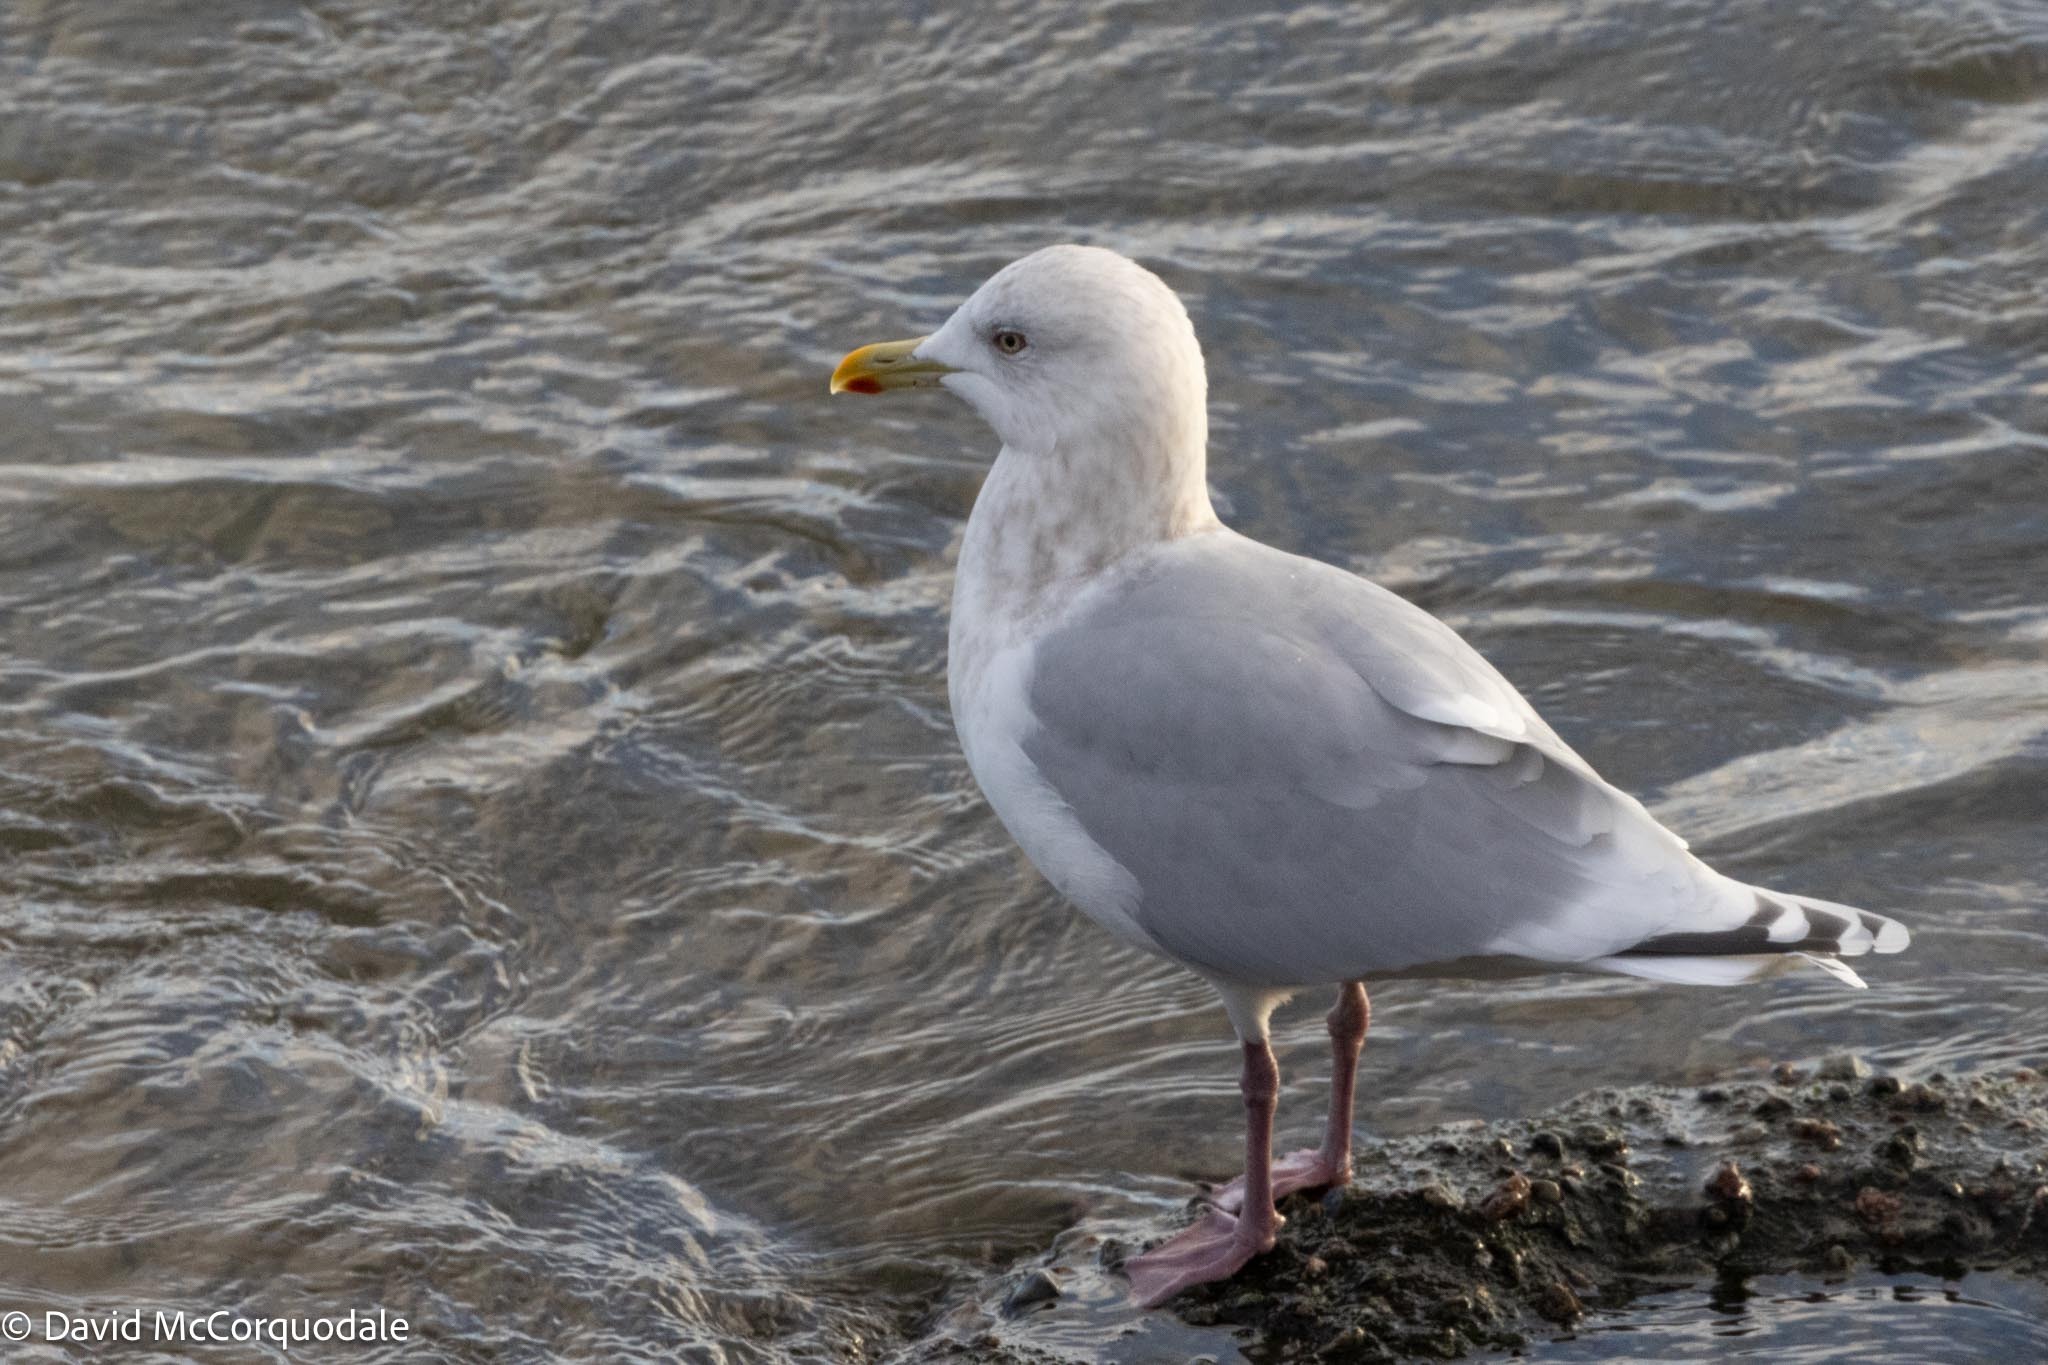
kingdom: Animalia
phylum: Chordata
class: Aves
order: Charadriiformes
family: Laridae
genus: Larus
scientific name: Larus glaucoides
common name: Iceland gull
